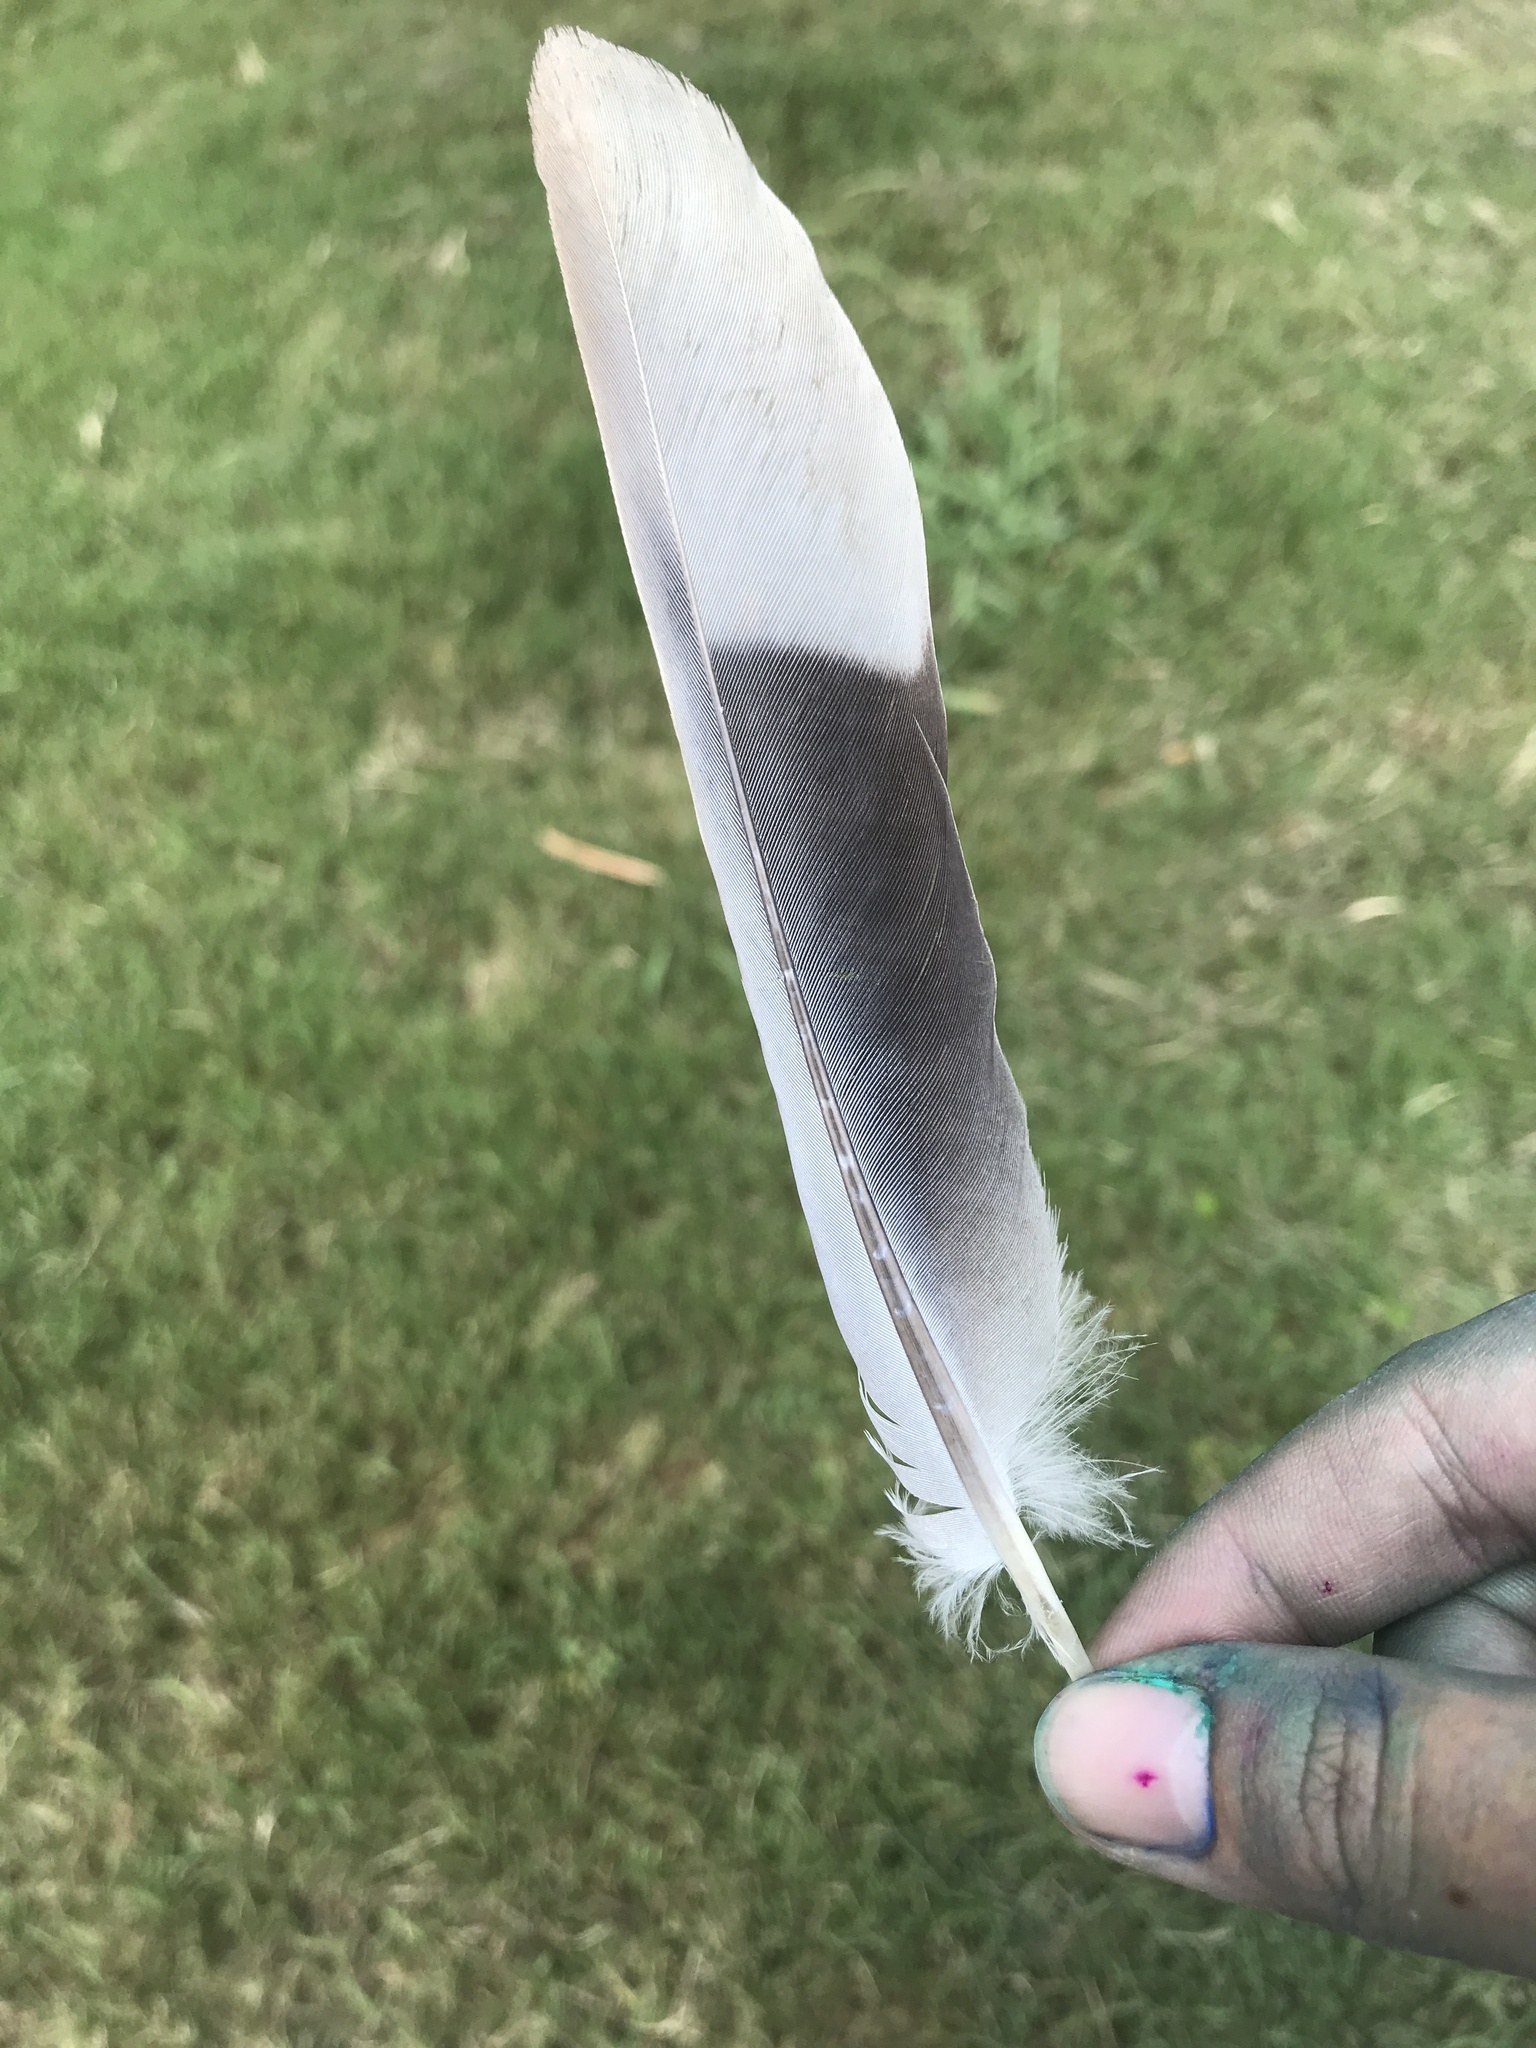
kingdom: Animalia
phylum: Chordata
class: Aves
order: Columbiformes
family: Columbidae
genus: Streptopelia
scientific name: Streptopelia decaocto
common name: Eurasian collared dove
